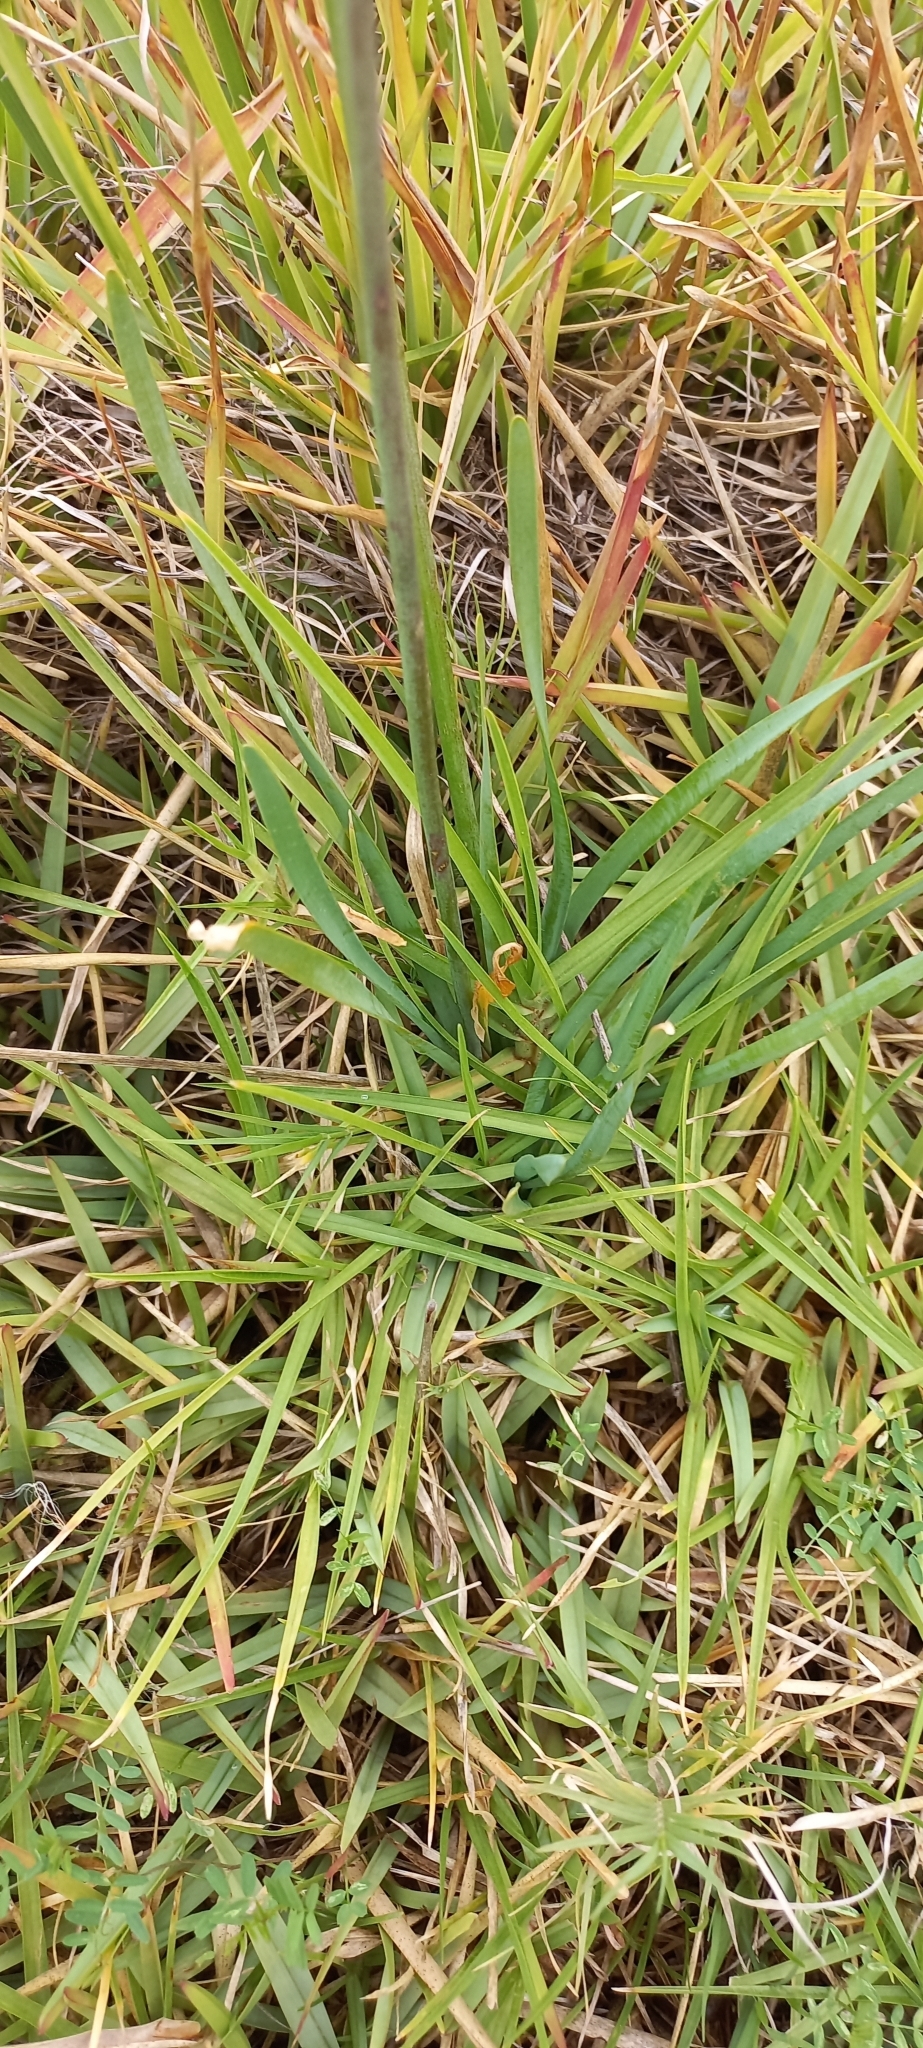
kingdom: Plantae
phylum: Tracheophyta
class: Liliopsida
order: Asparagales
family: Amaryllidaceae
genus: Tulbaghia
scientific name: Tulbaghia violacea
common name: Society garlic
